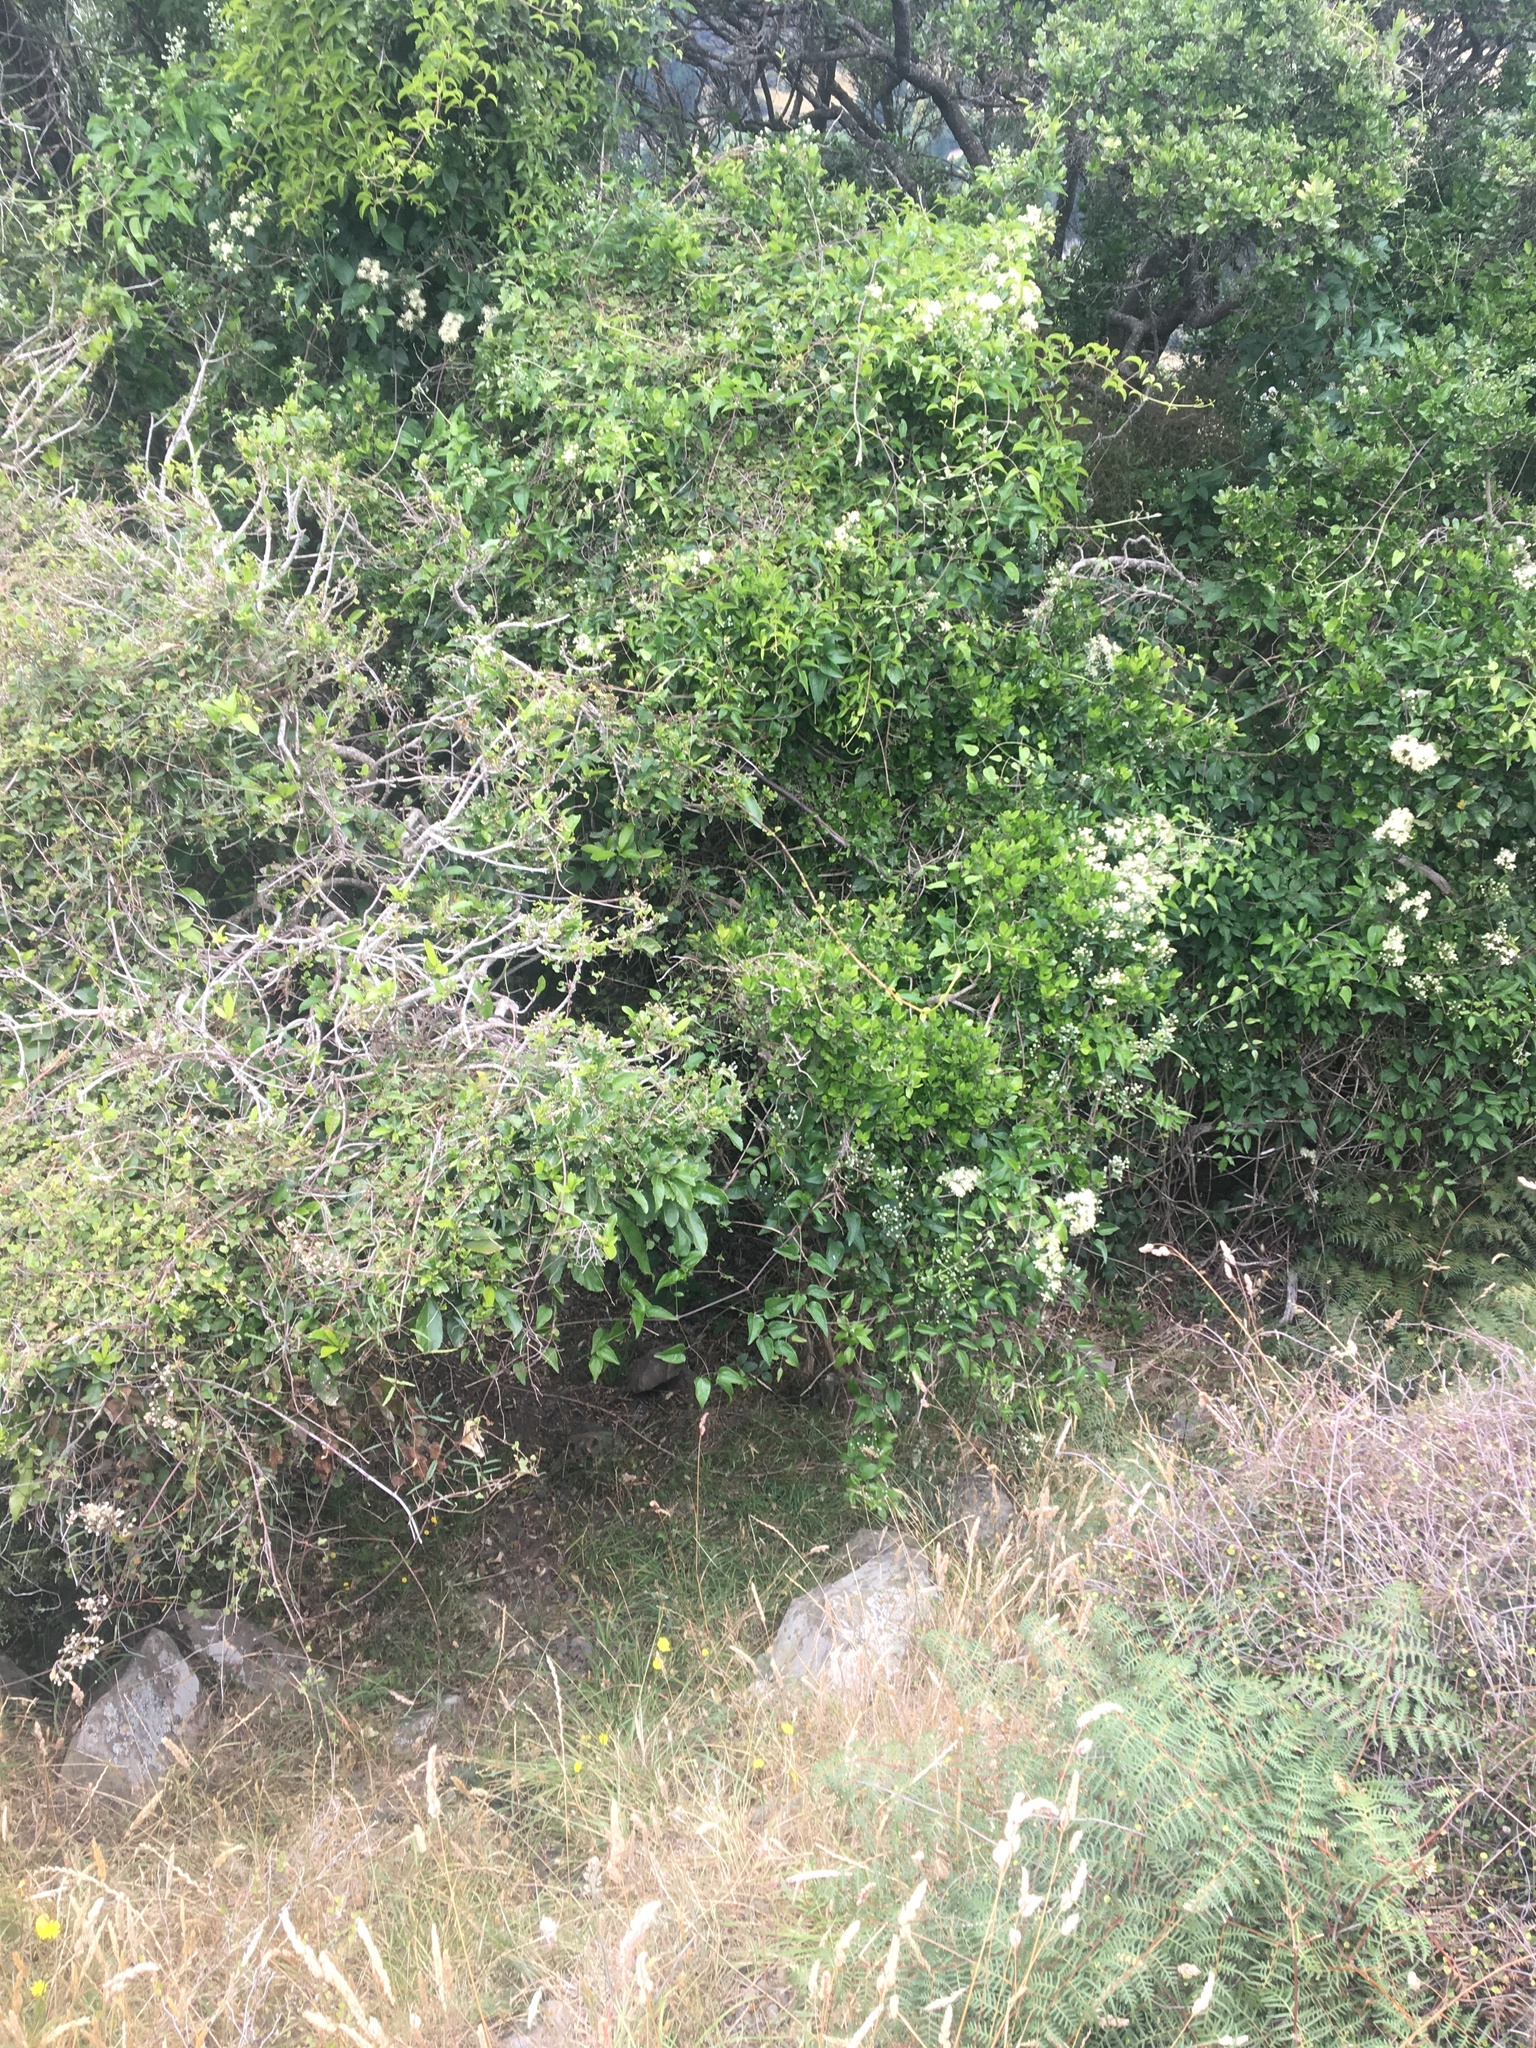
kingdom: Plantae
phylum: Tracheophyta
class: Magnoliopsida
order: Ranunculales
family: Ranunculaceae
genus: Clematis
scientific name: Clematis vitalba
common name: Evergreen clematis
